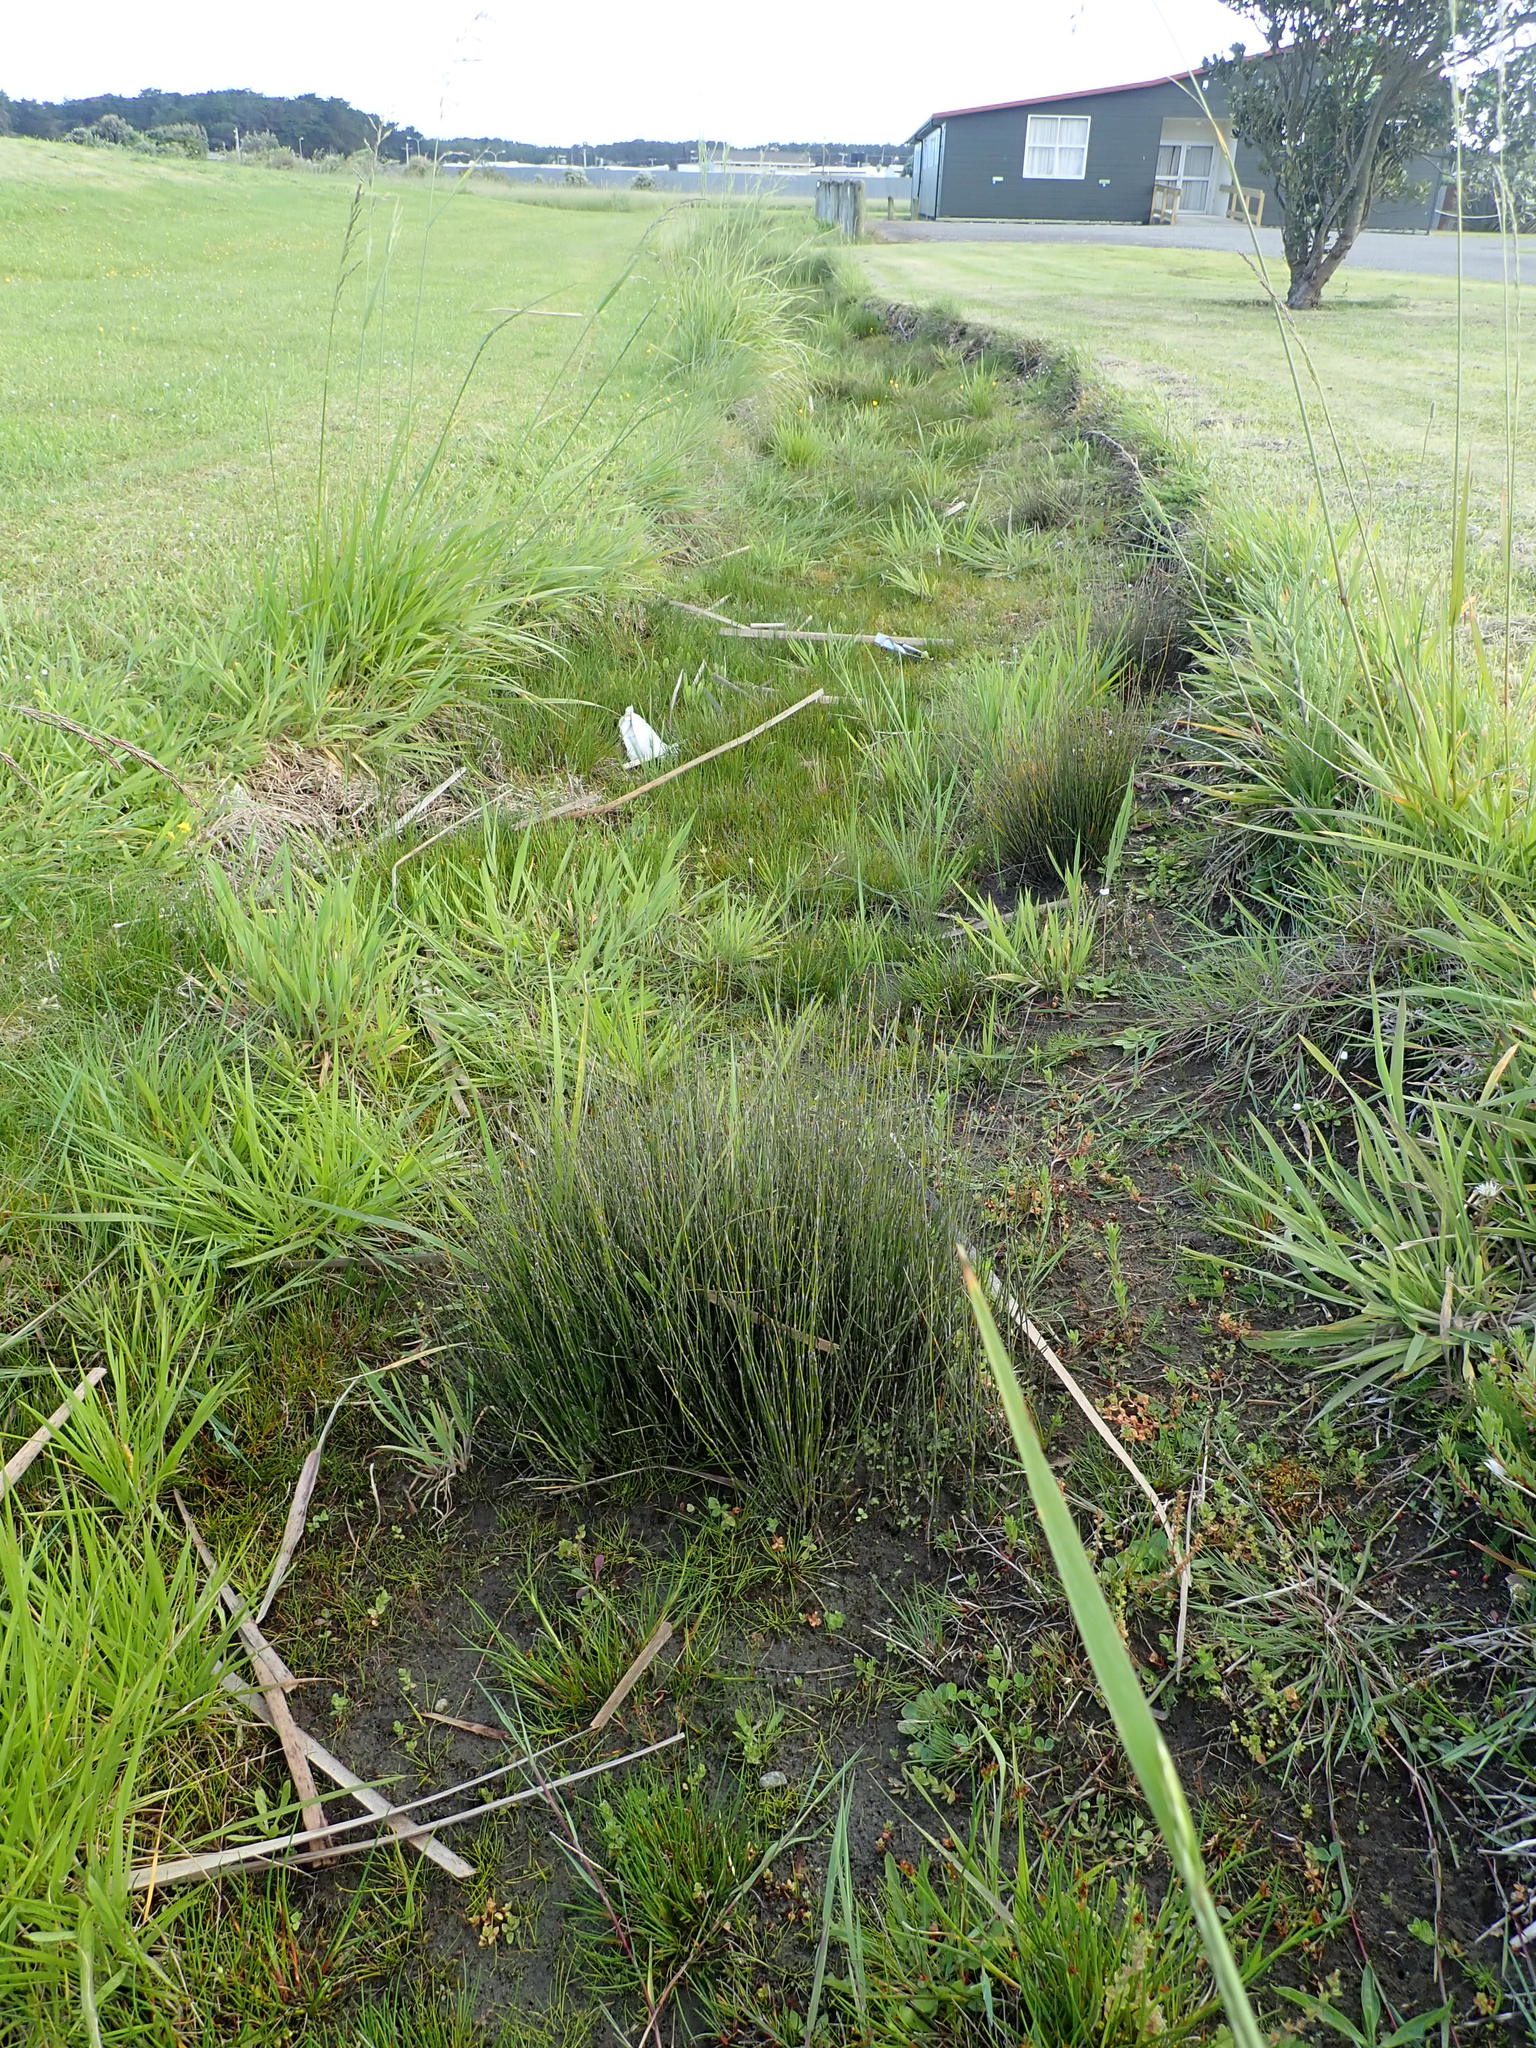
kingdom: Plantae
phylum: Tracheophyta
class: Liliopsida
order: Poales
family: Restionaceae
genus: Apodasmia
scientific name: Apodasmia similis
